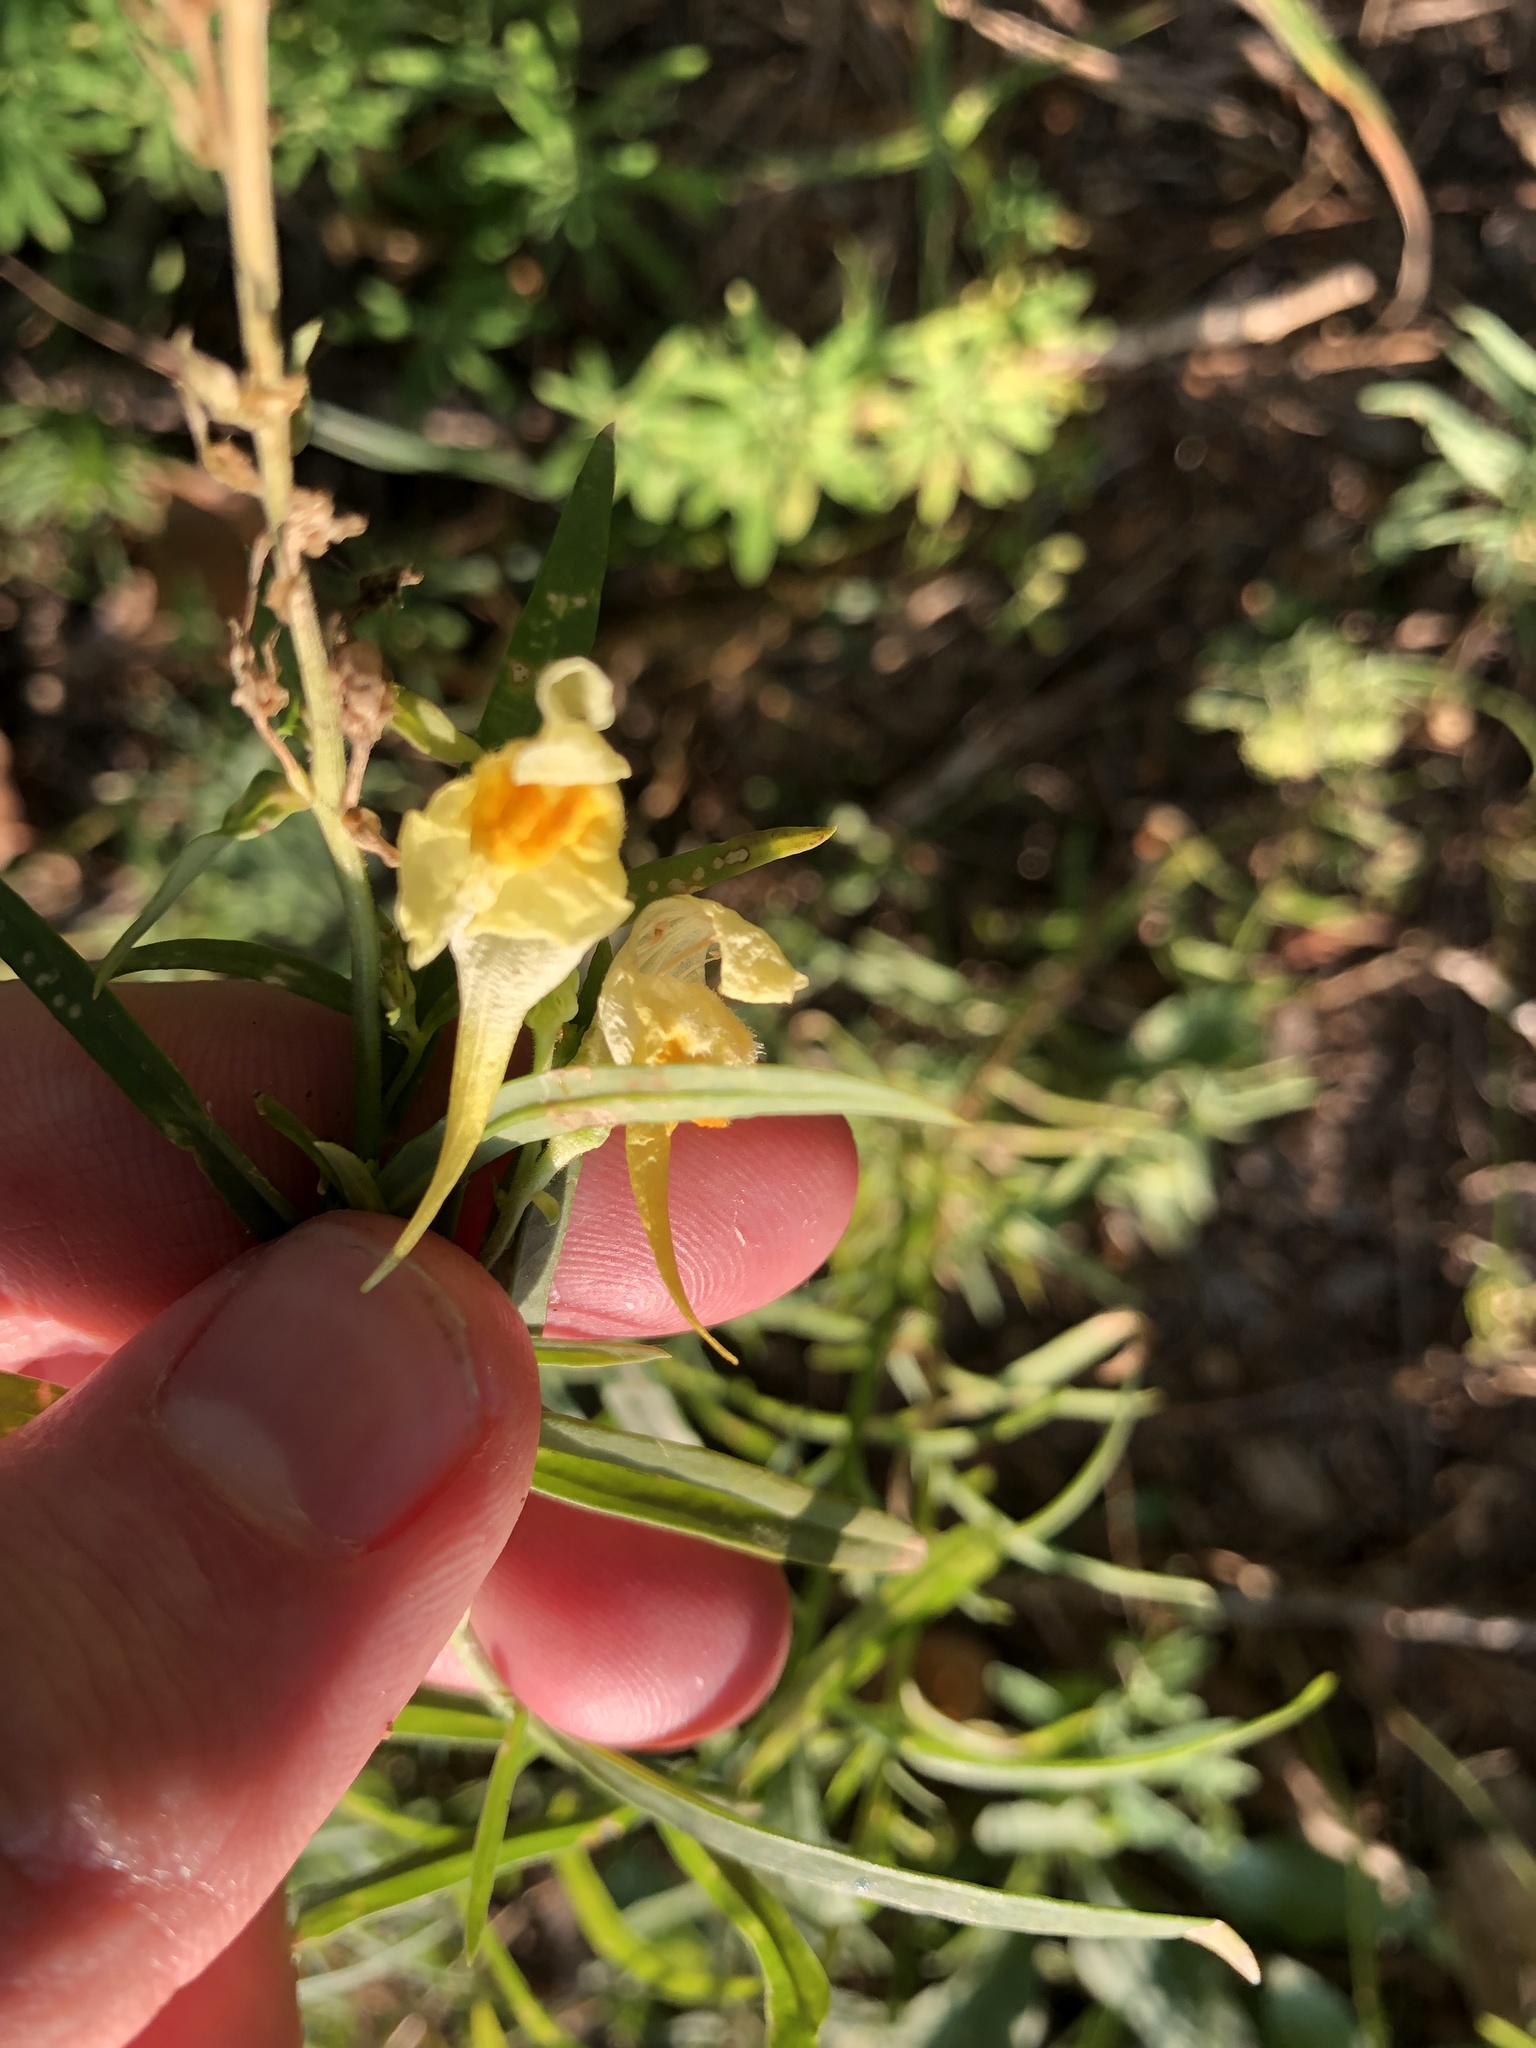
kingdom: Plantae
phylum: Tracheophyta
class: Magnoliopsida
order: Lamiales
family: Plantaginaceae
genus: Linaria
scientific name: Linaria vulgaris
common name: Butter and eggs
